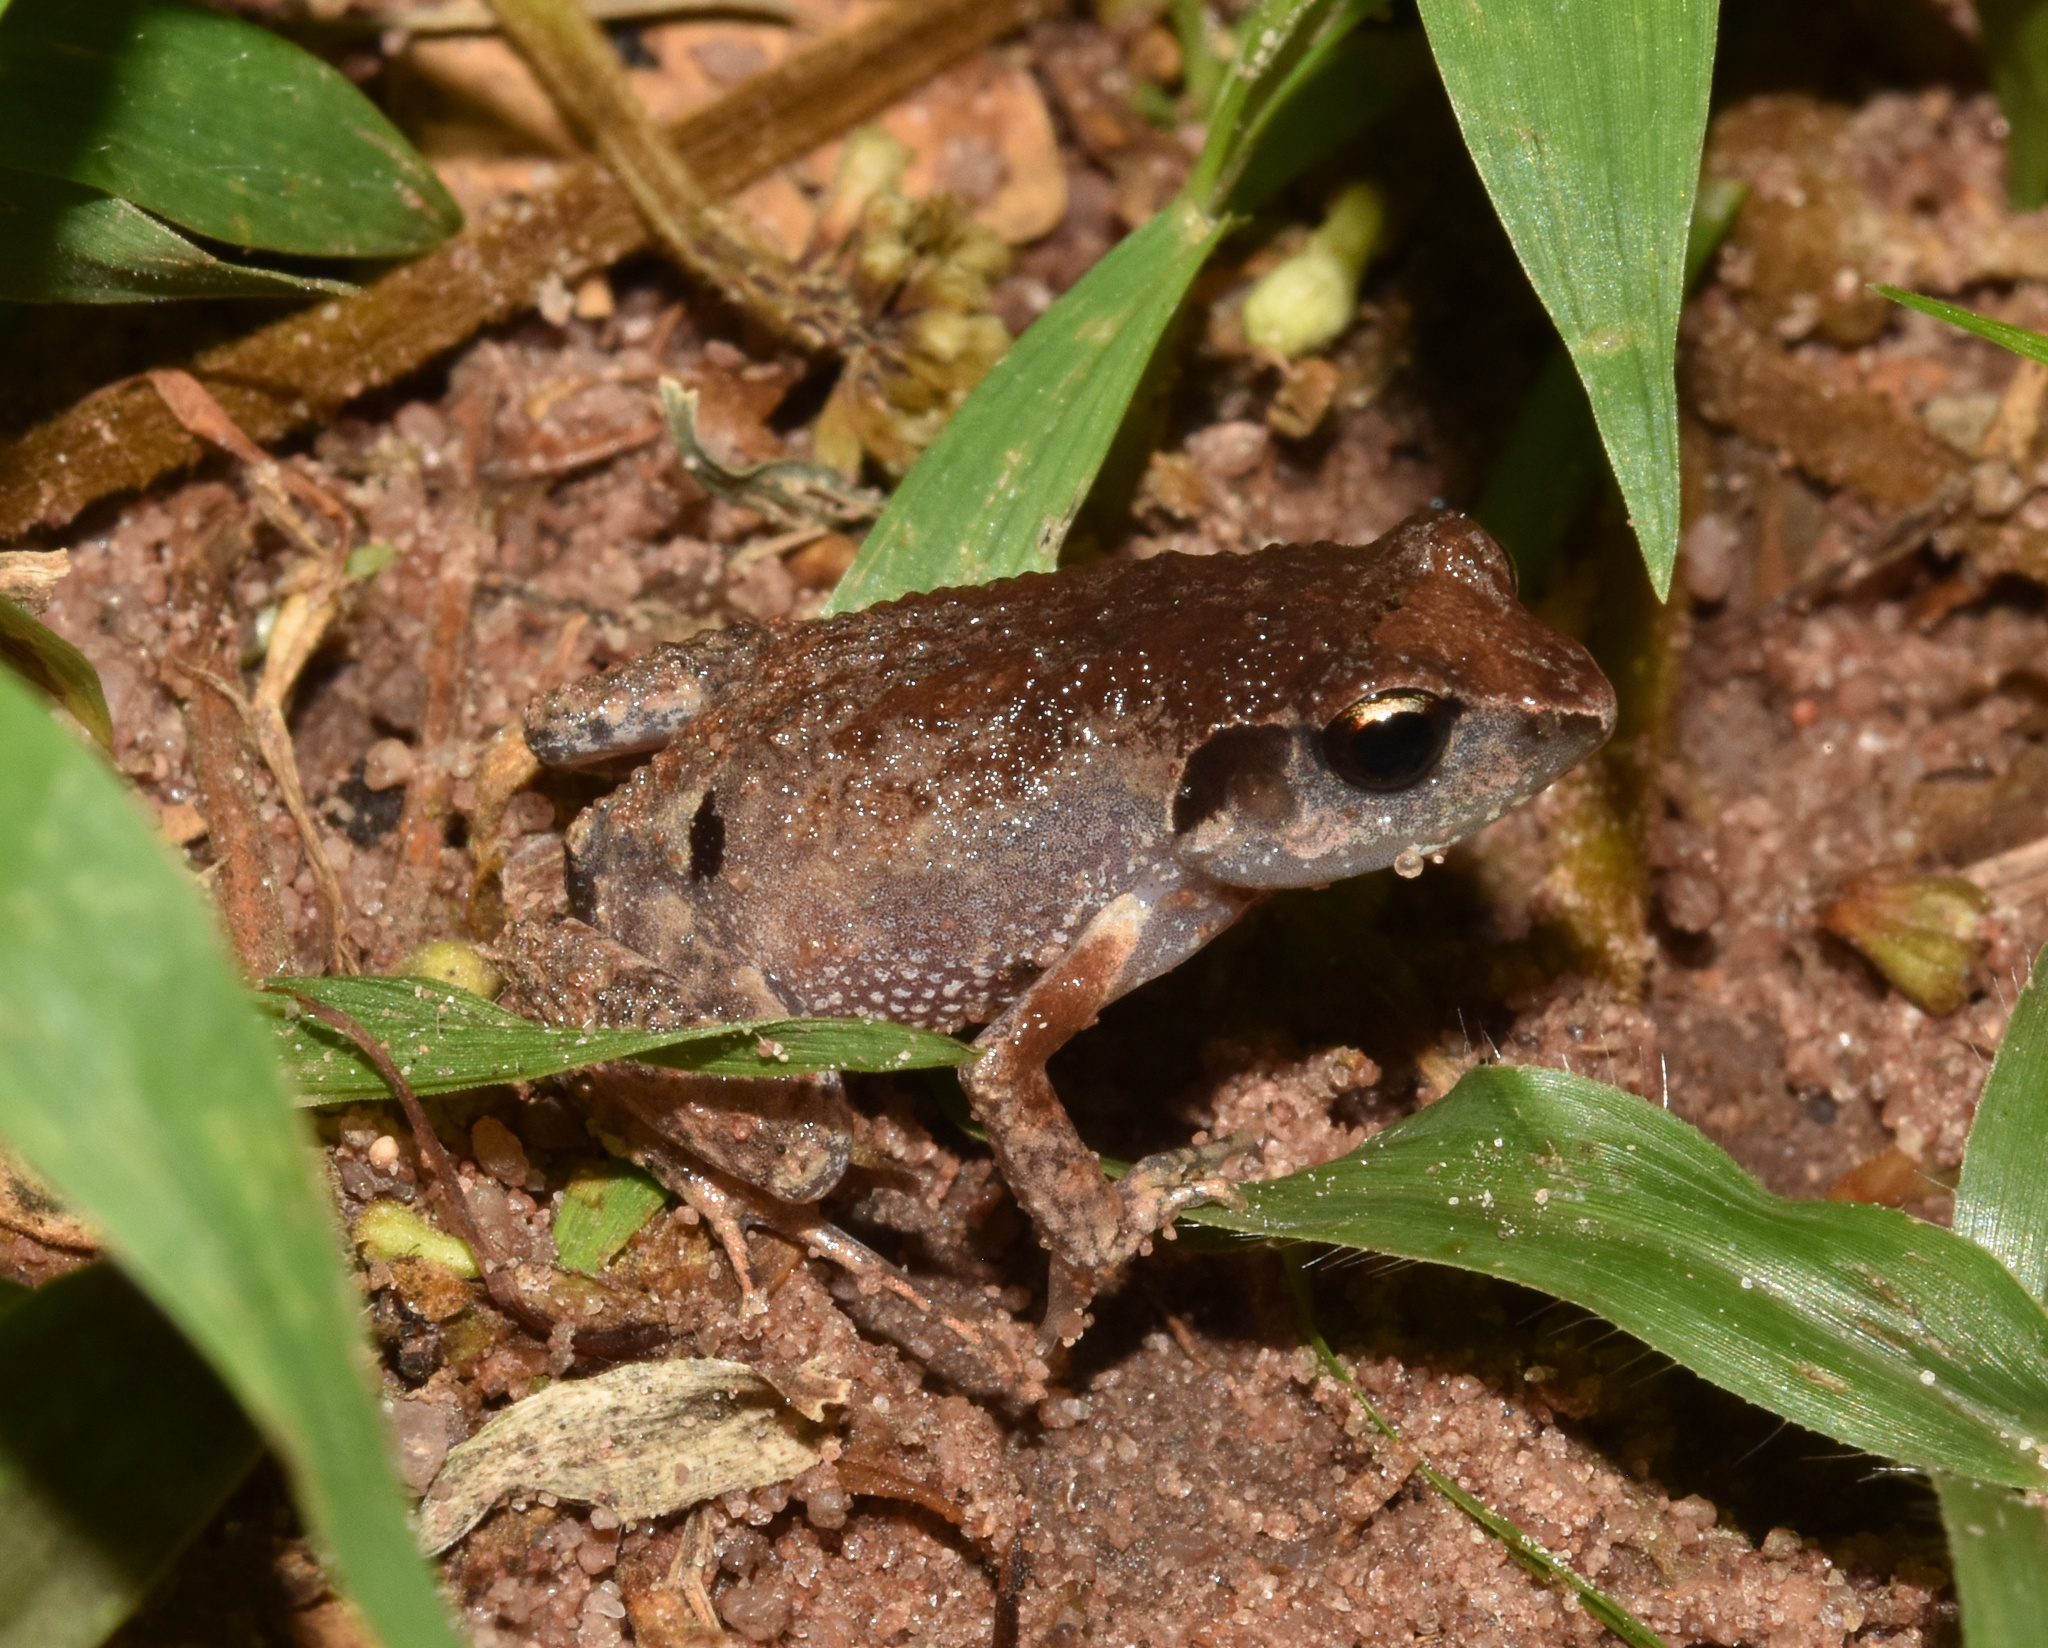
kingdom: Animalia
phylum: Chordata
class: Amphibia
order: Anura
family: Arthroleptidae
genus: Arthroleptis
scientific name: Arthroleptis wahlbergii
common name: Bush squeaker
